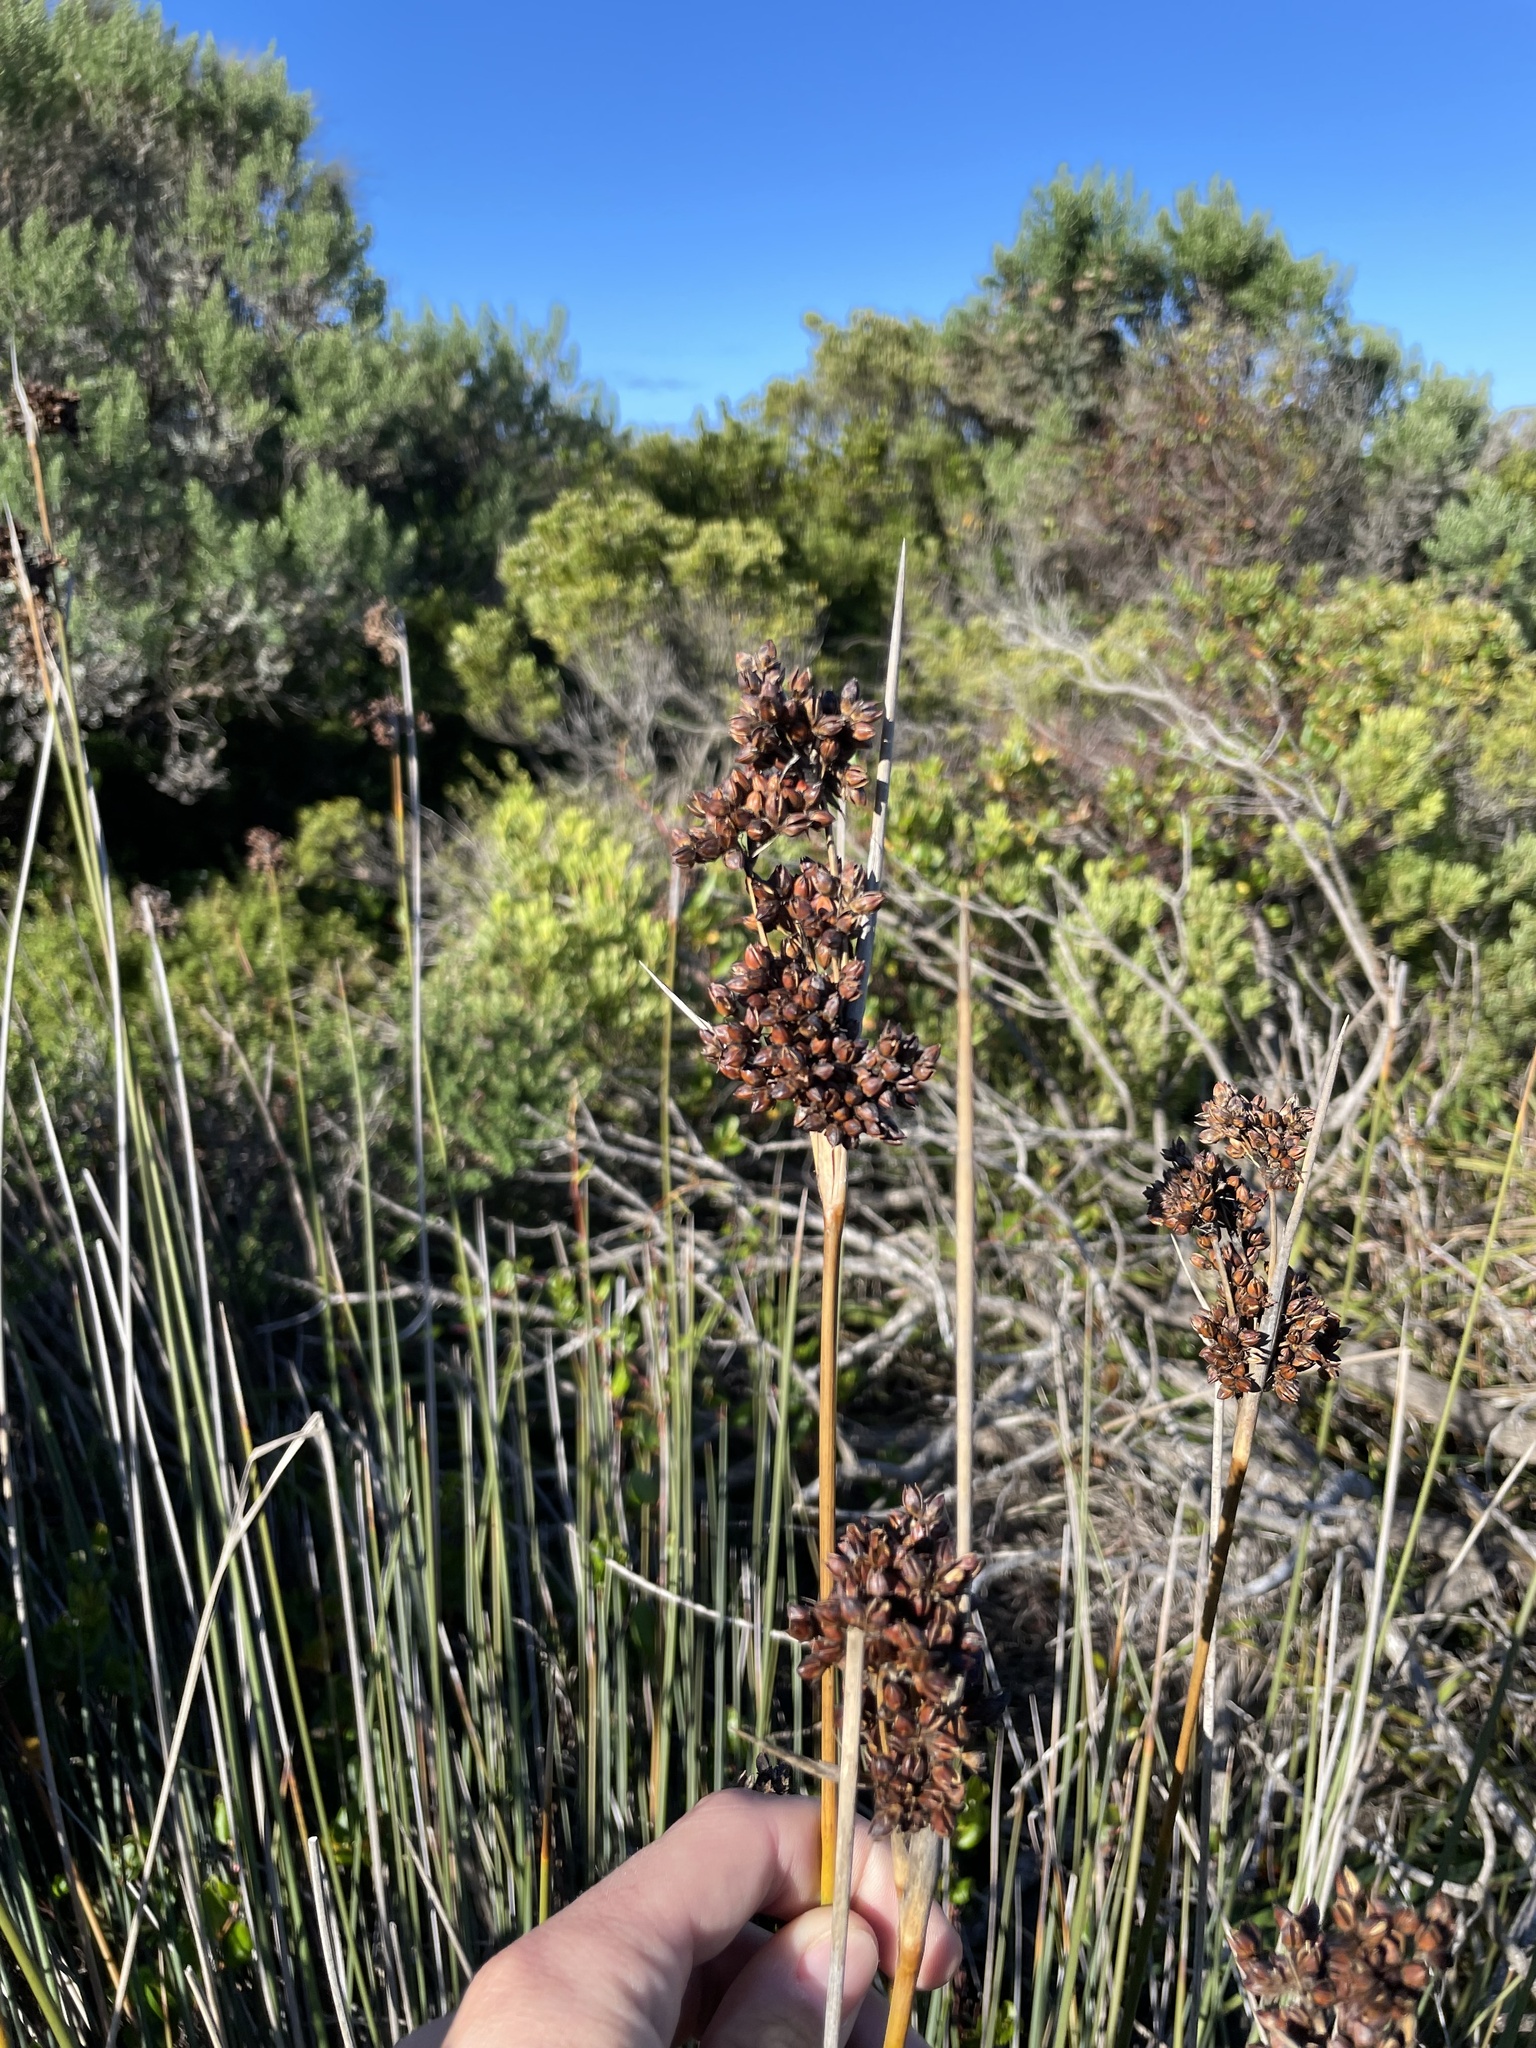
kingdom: Plantae
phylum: Tracheophyta
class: Liliopsida
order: Poales
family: Juncaceae
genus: Juncus
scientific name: Juncus acutus
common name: Sharp rush
